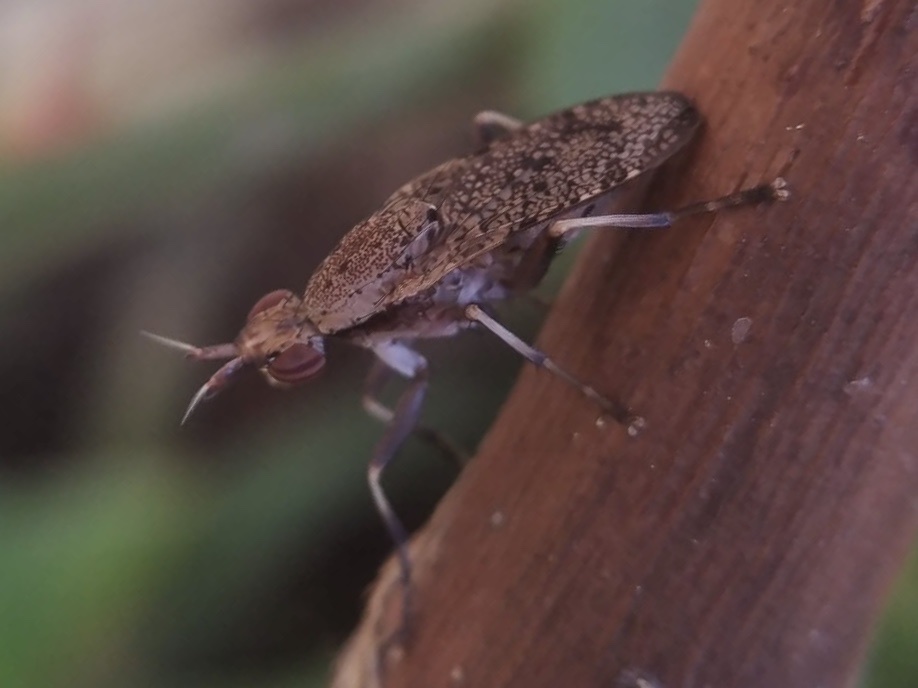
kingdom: Animalia
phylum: Arthropoda
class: Insecta
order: Diptera
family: Sciomyzidae
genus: Euthycera
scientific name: Euthycera cribrata
